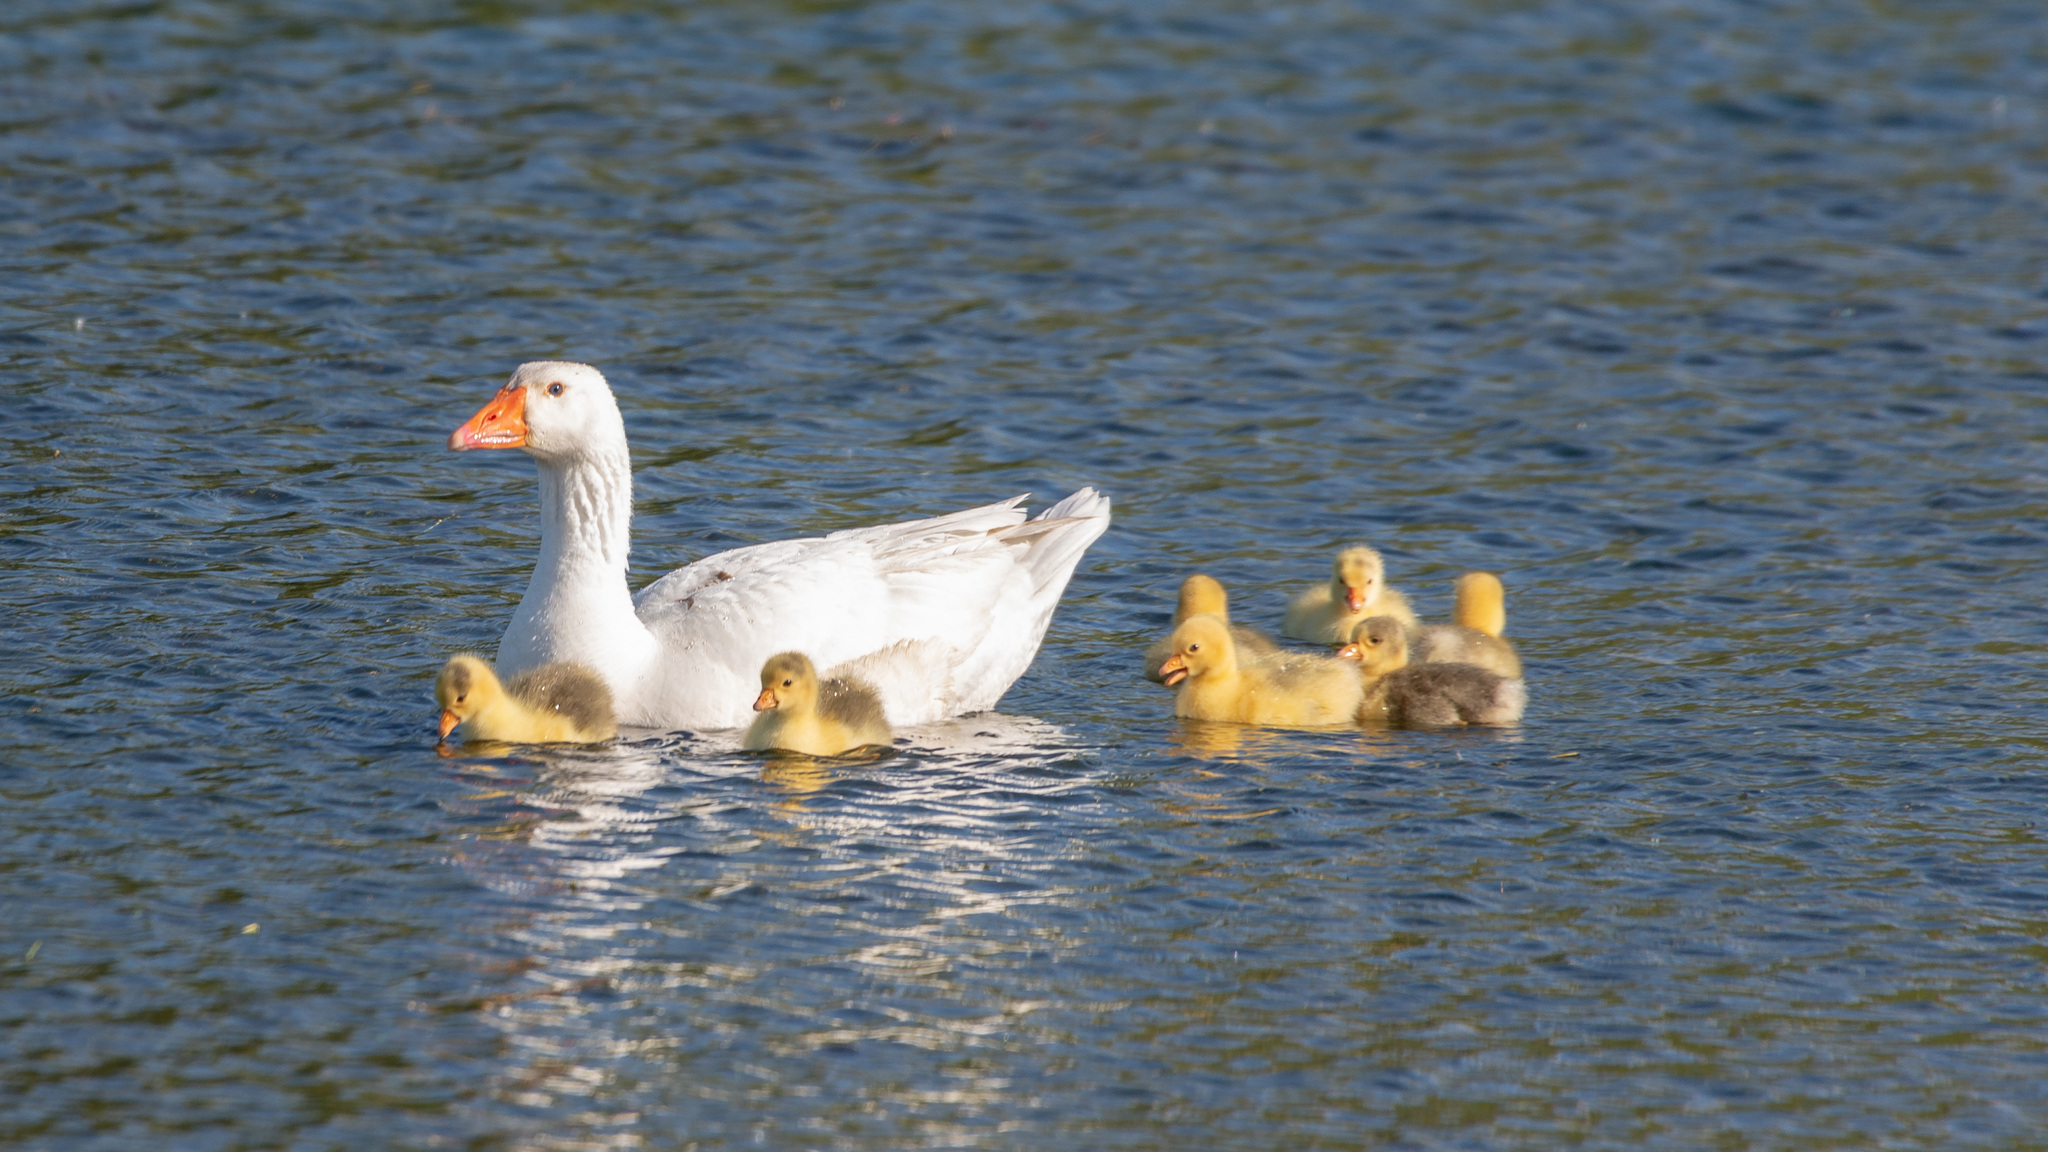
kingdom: Animalia
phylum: Chordata
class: Aves
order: Anseriformes
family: Anatidae
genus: Anser
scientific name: Anser anser
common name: Greylag goose
